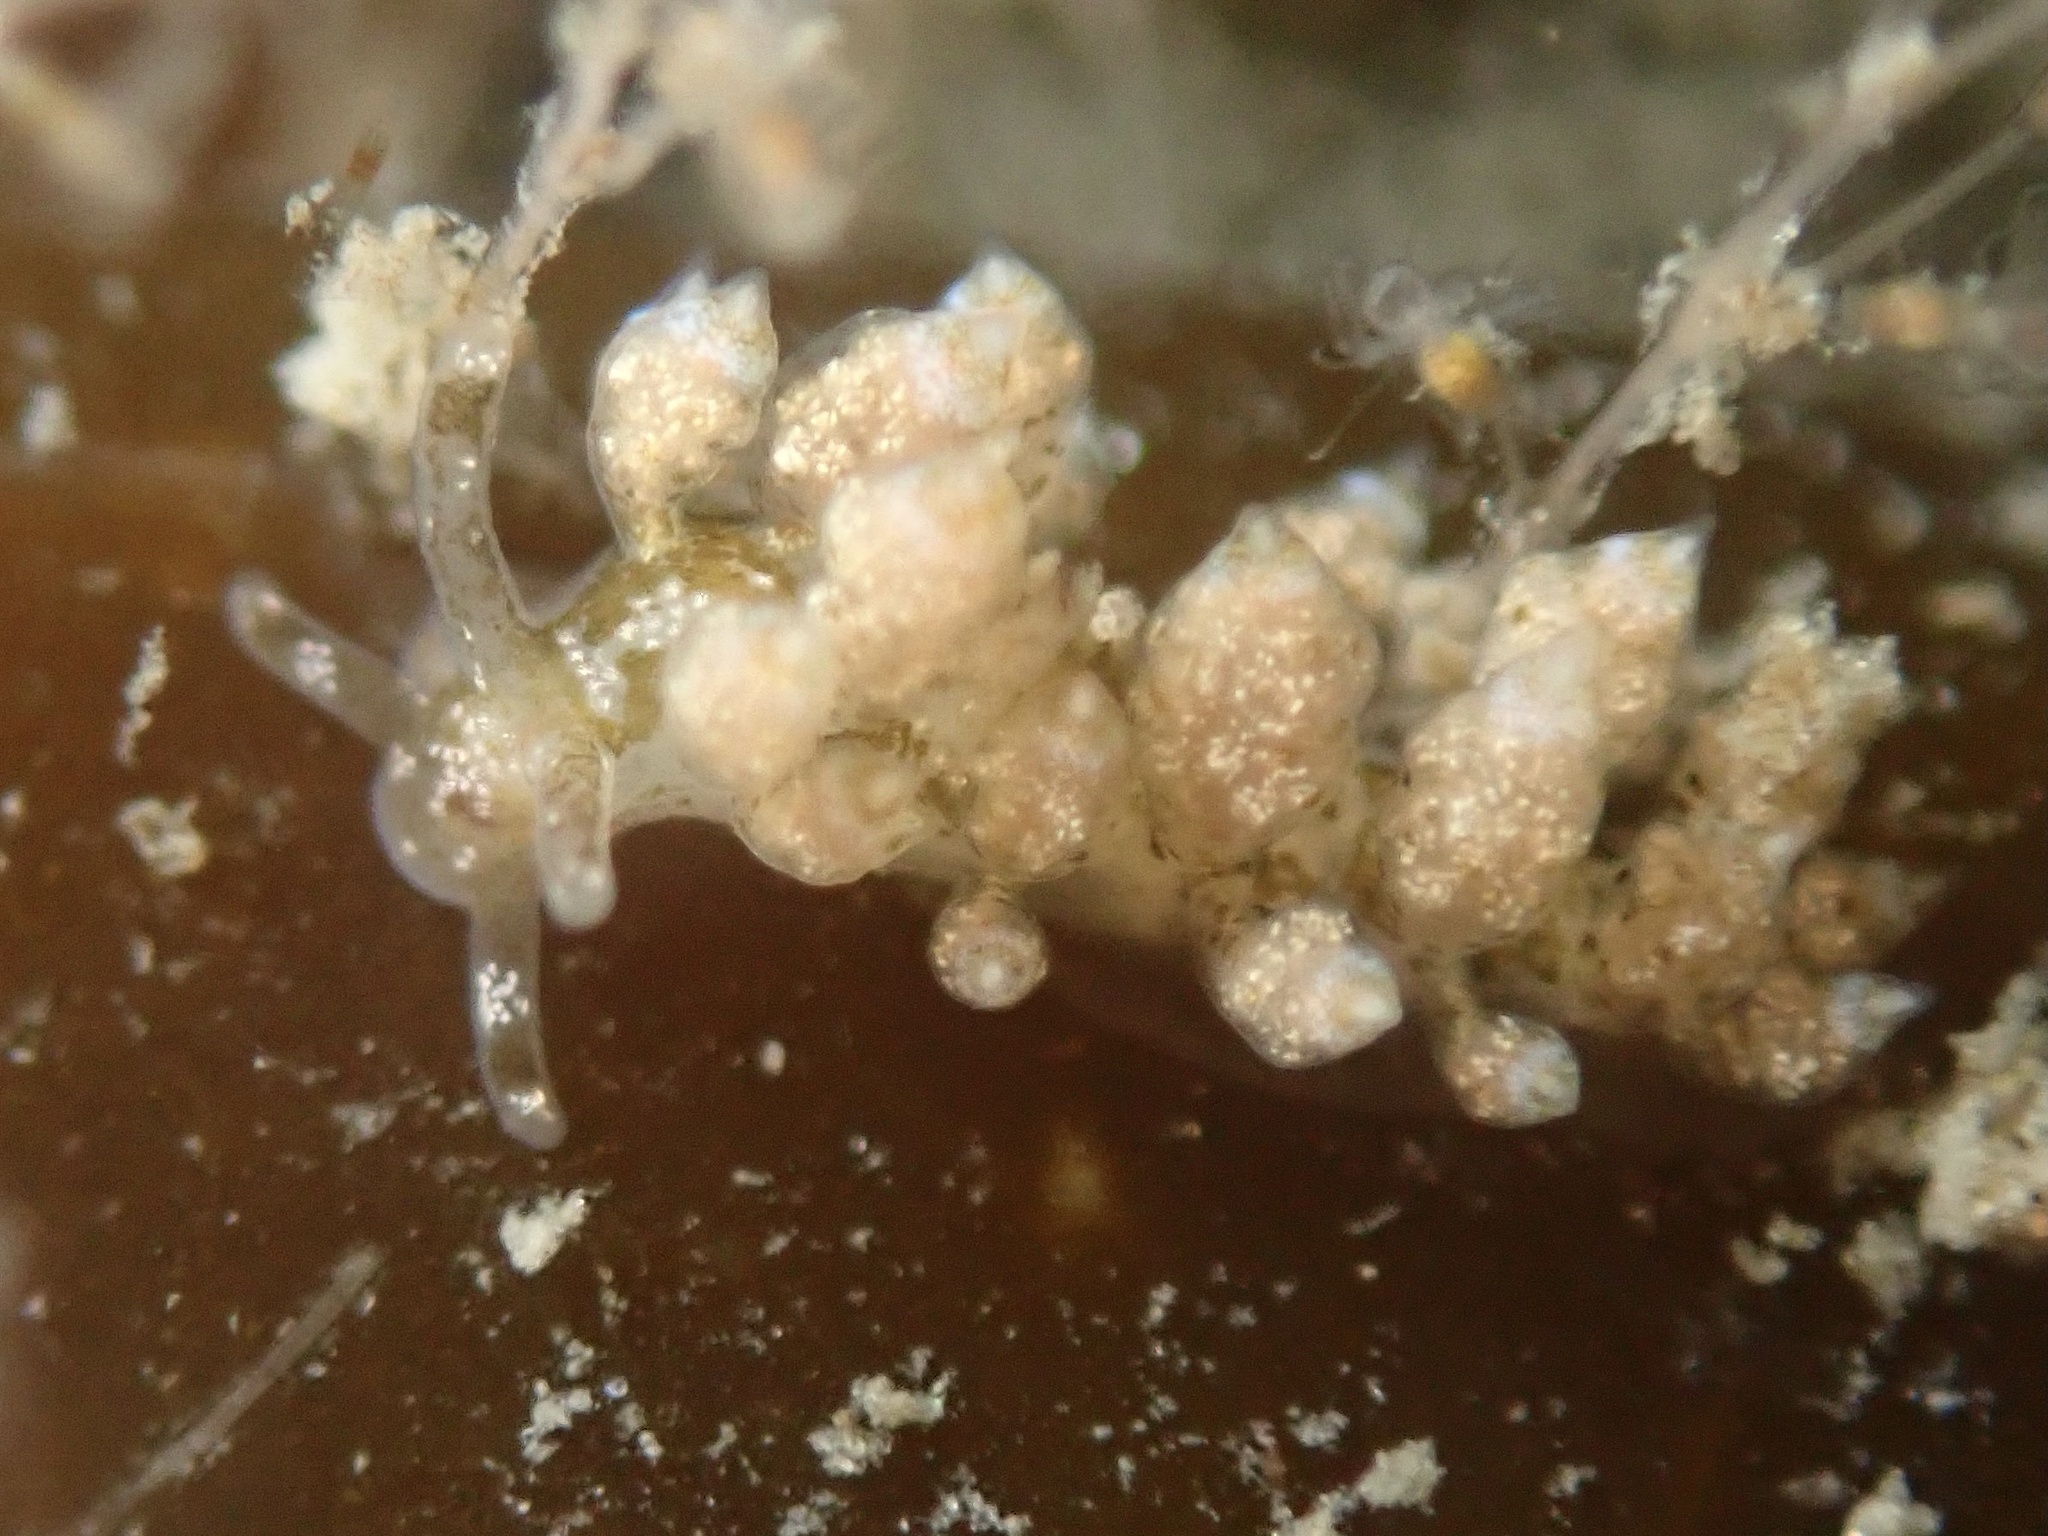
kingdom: Animalia
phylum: Mollusca
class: Gastropoda
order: Nudibranchia
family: Eubranchidae
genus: Eubranchus
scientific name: Eubranchus rustyus
